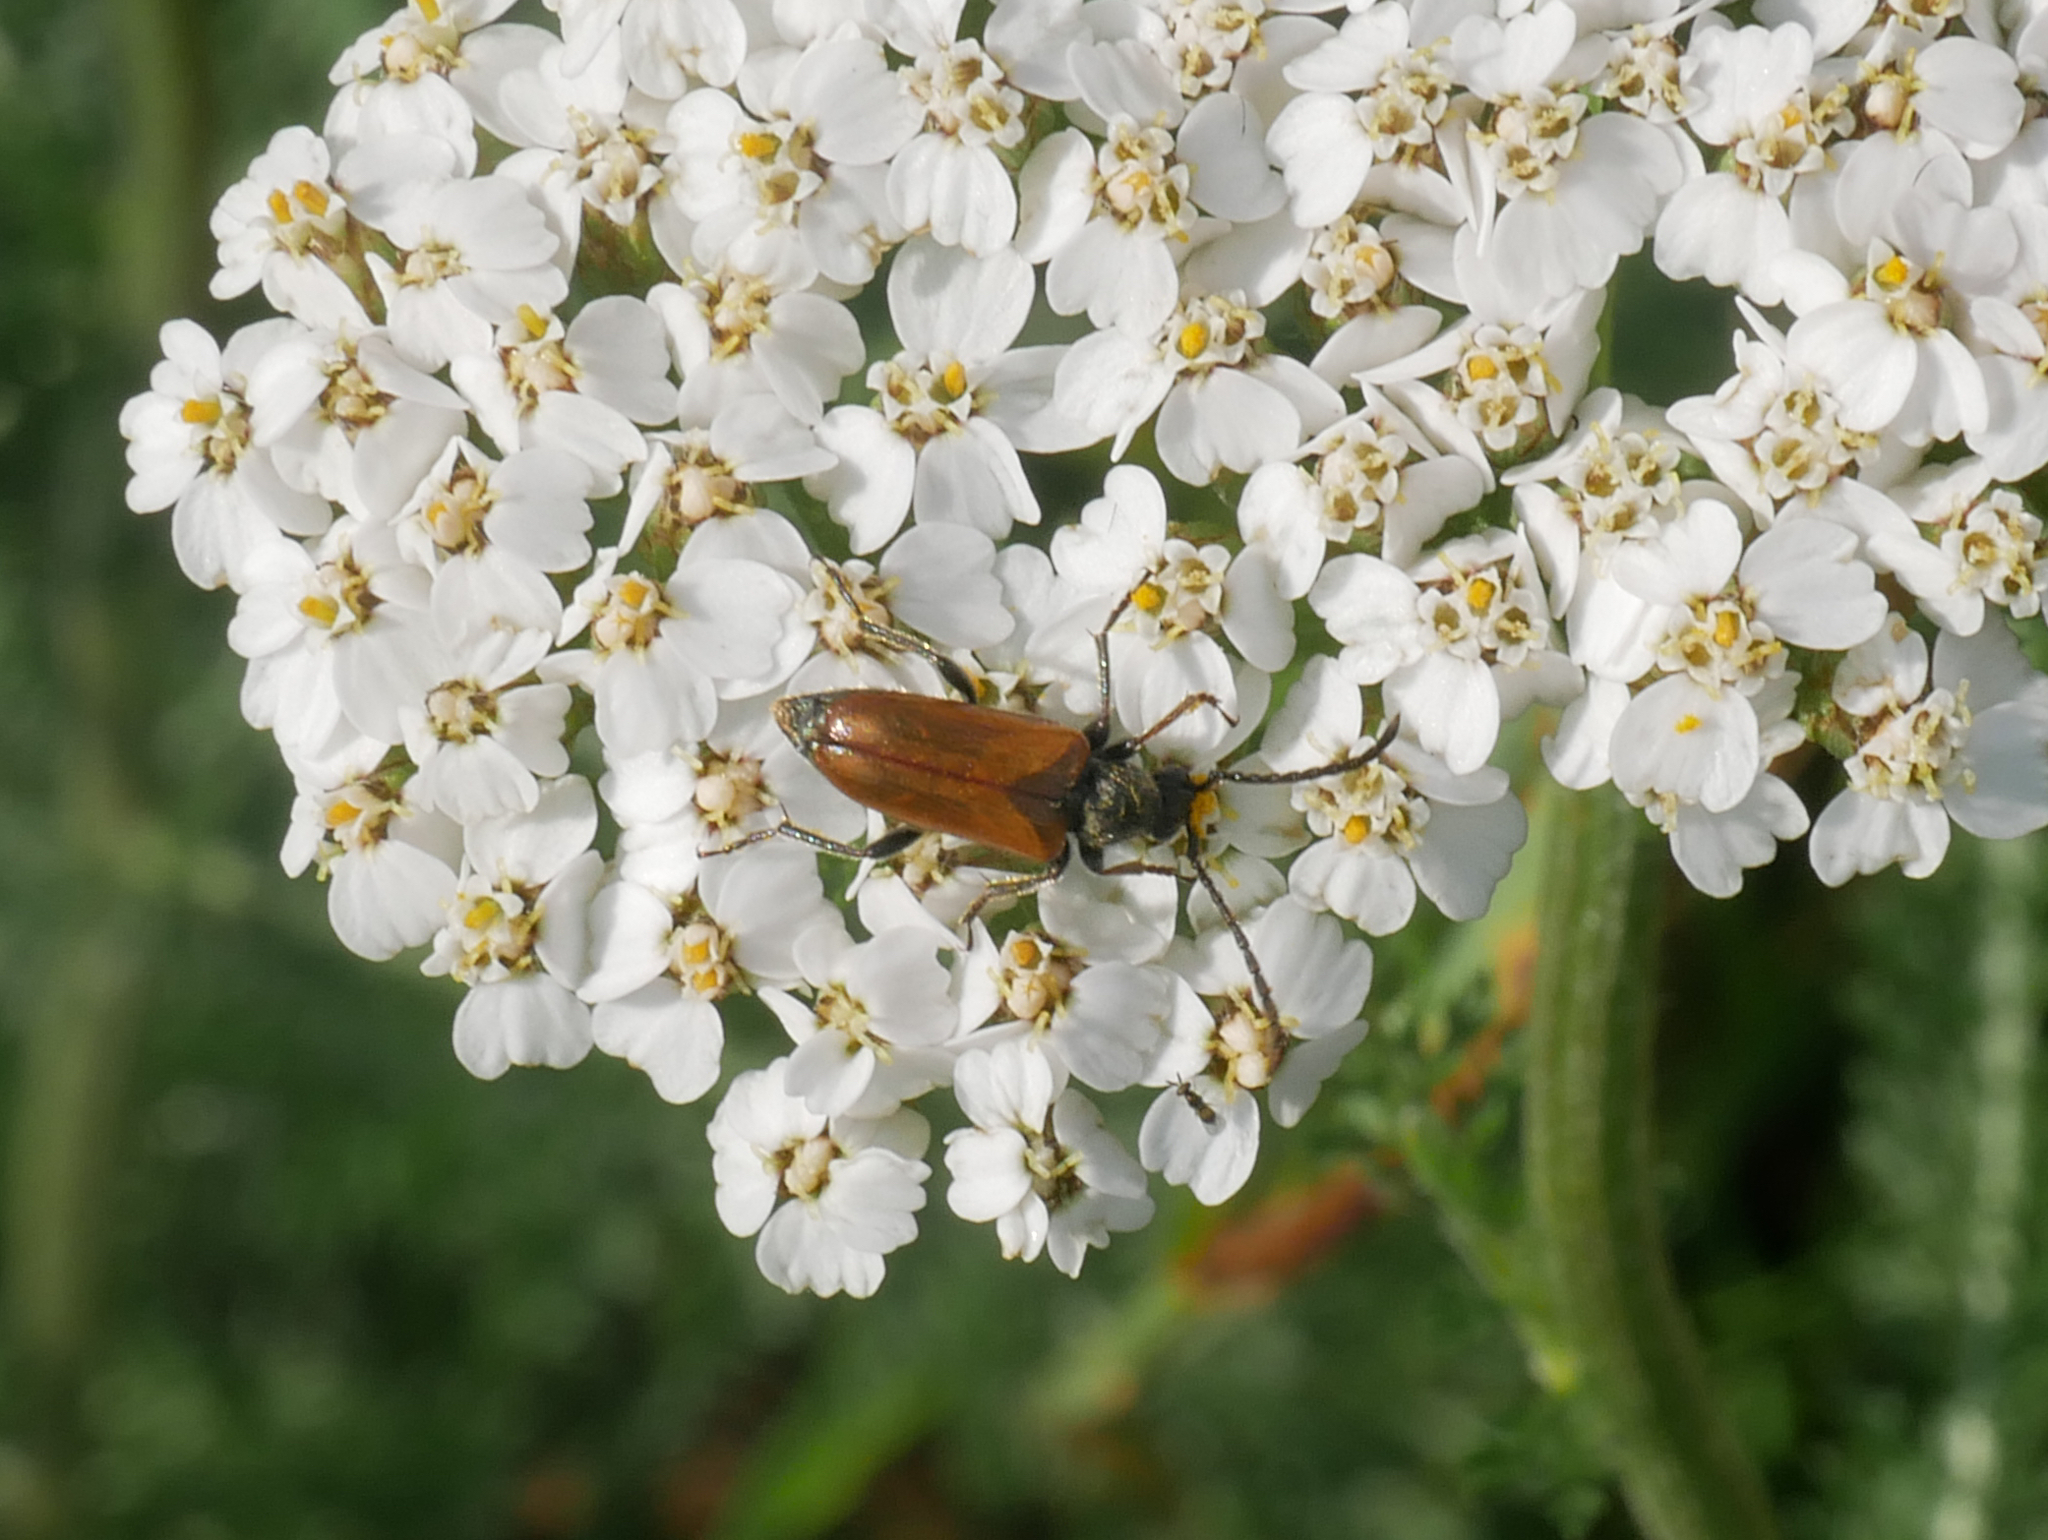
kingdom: Animalia
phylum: Arthropoda
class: Insecta
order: Coleoptera
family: Cerambycidae
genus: Pseudovadonia
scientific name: Pseudovadonia livida
